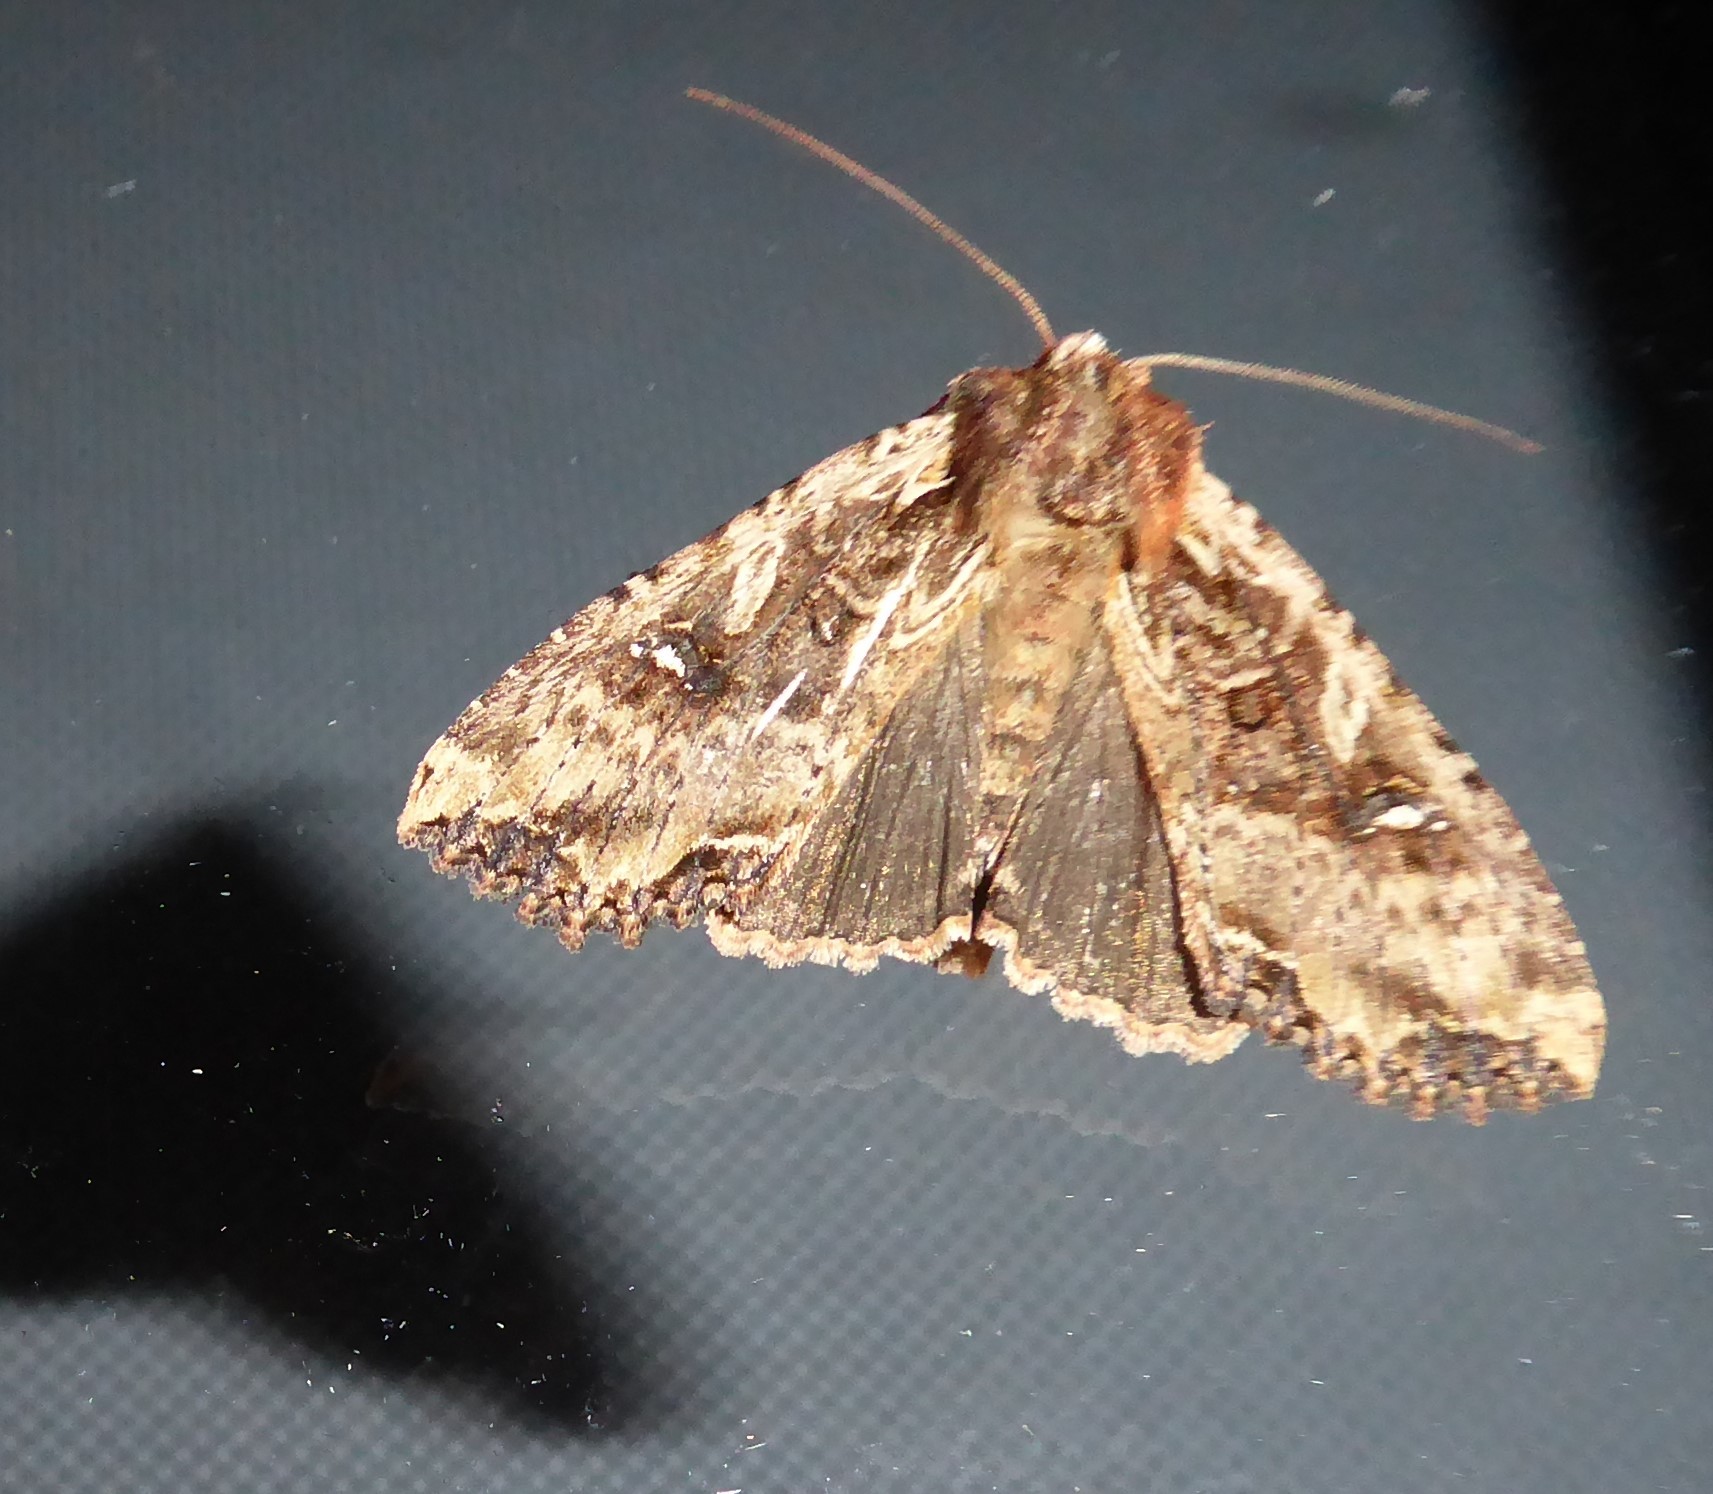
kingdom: Animalia
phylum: Arthropoda
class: Insecta
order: Lepidoptera
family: Noctuidae
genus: Meterana
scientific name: Meterana stipata
